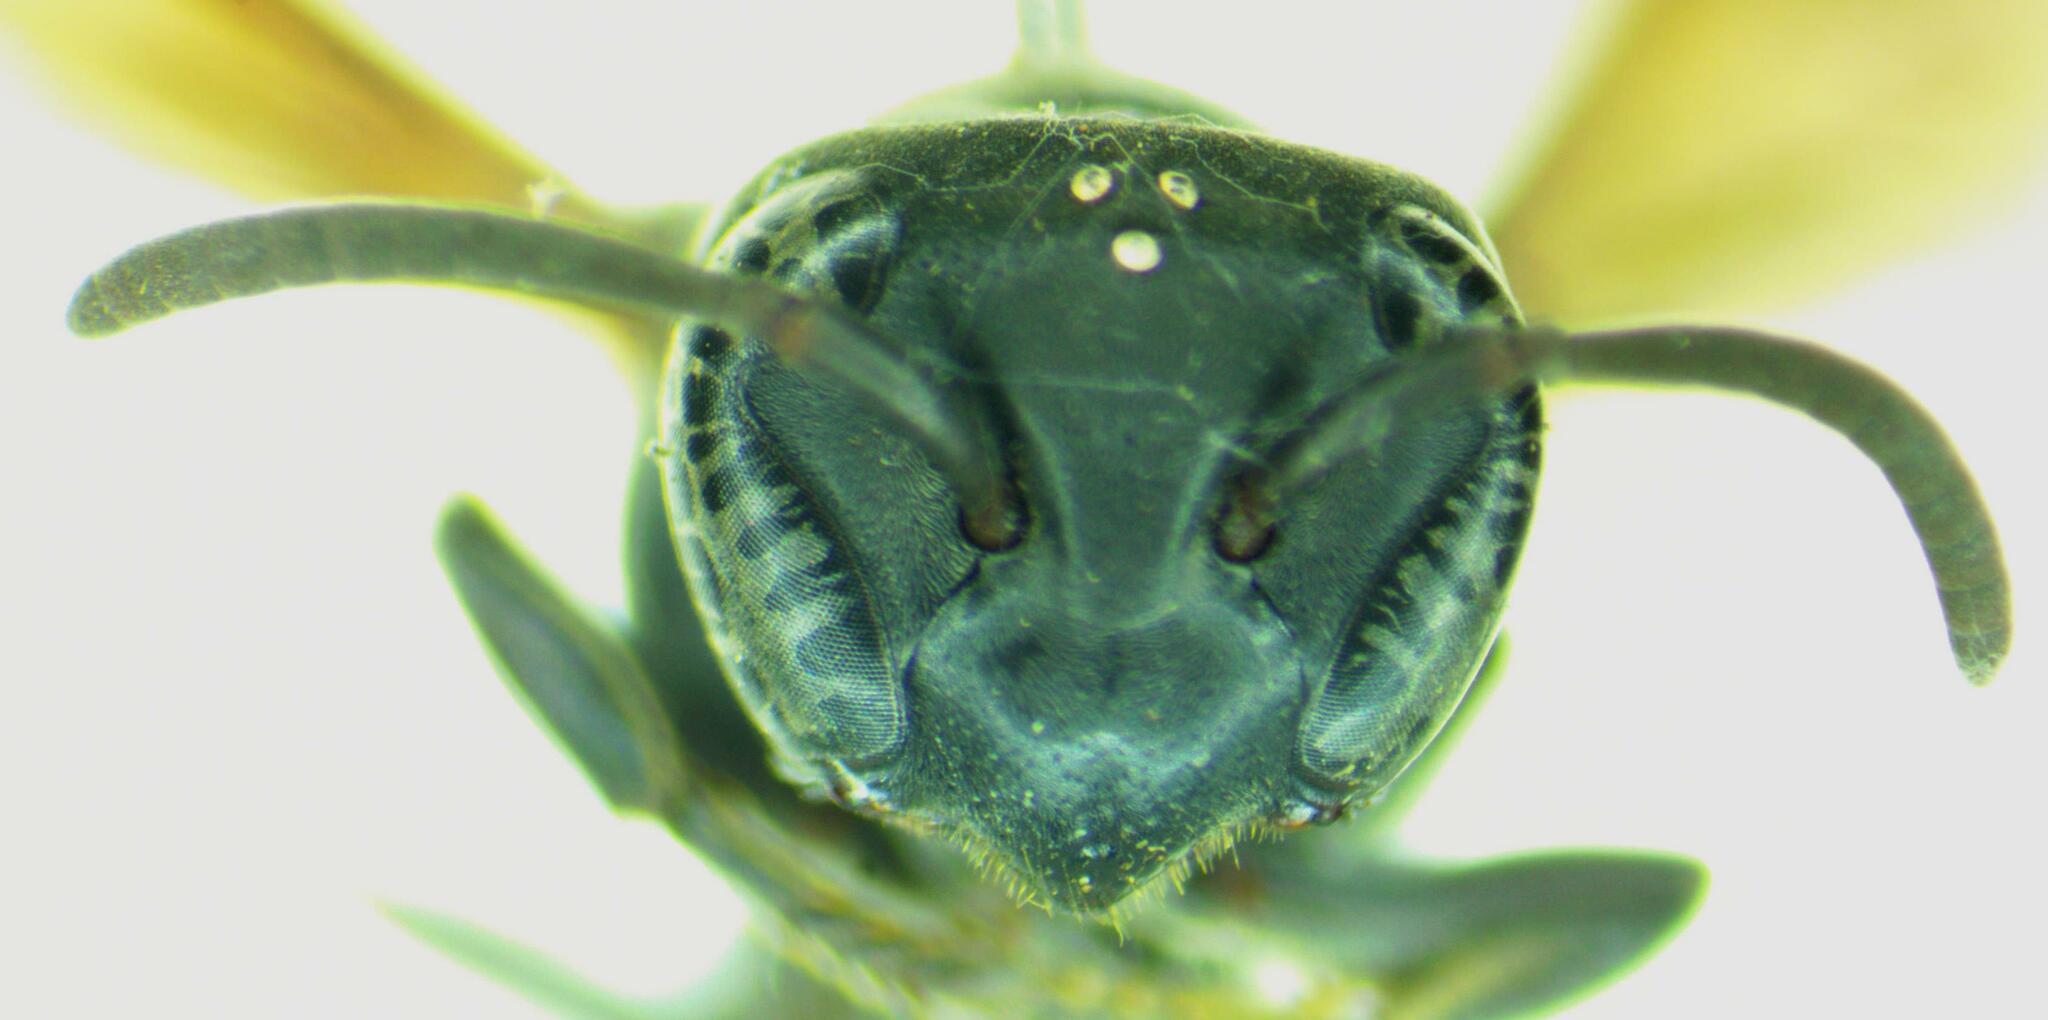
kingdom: Animalia
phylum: Arthropoda
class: Insecta
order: Hymenoptera
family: Eumenidae
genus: Polybia
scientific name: Polybia simillima
